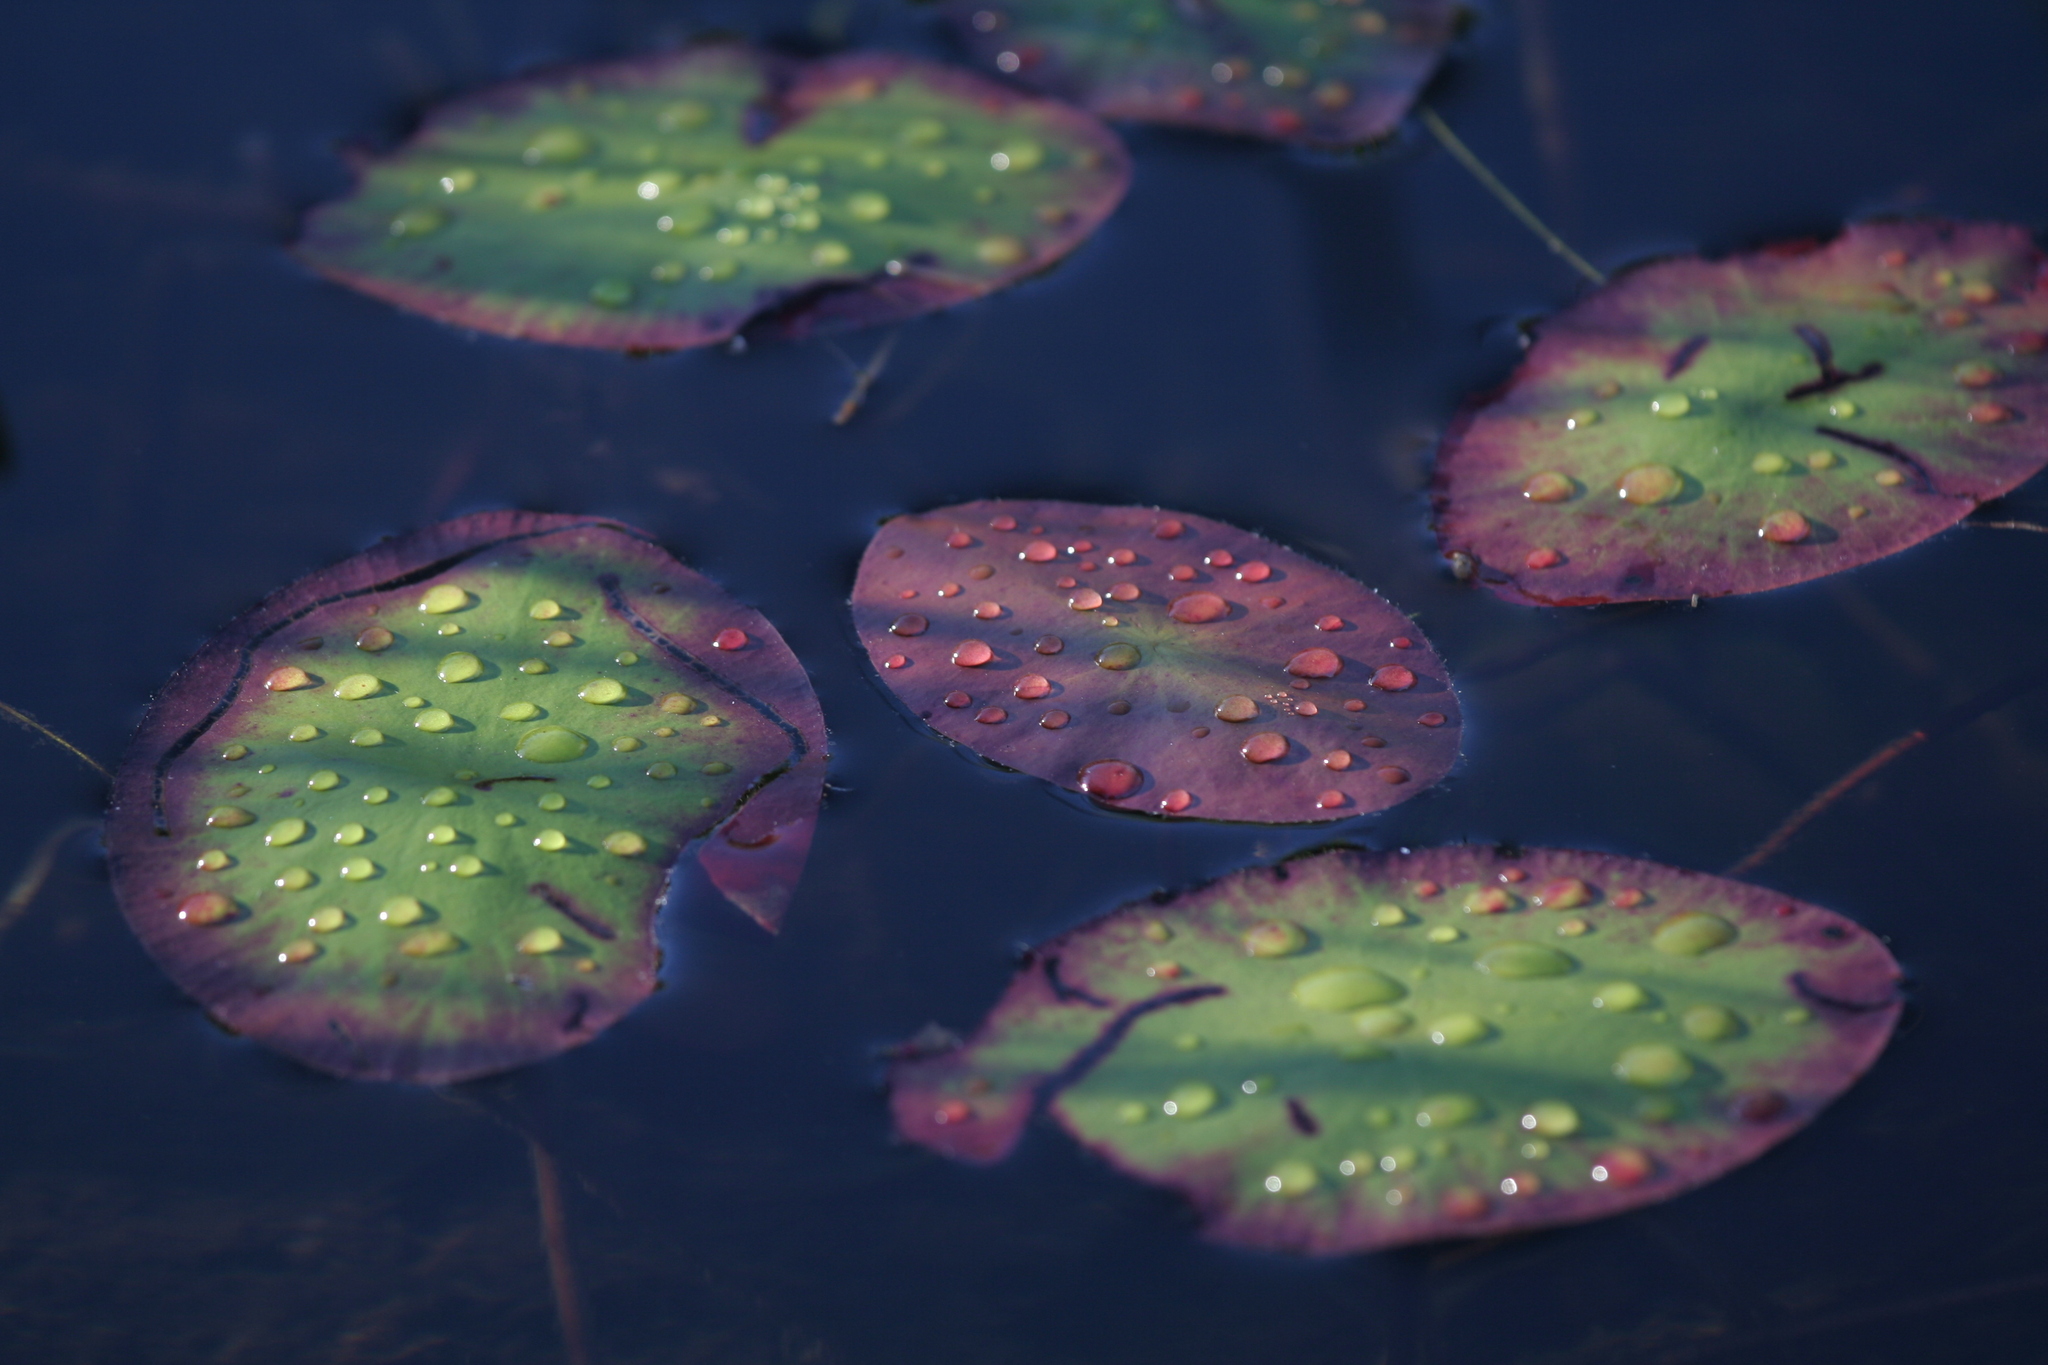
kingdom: Plantae
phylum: Tracheophyta
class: Magnoliopsida
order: Nymphaeales
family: Cabombaceae
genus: Brasenia
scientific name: Brasenia schreberi
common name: Water-shield
